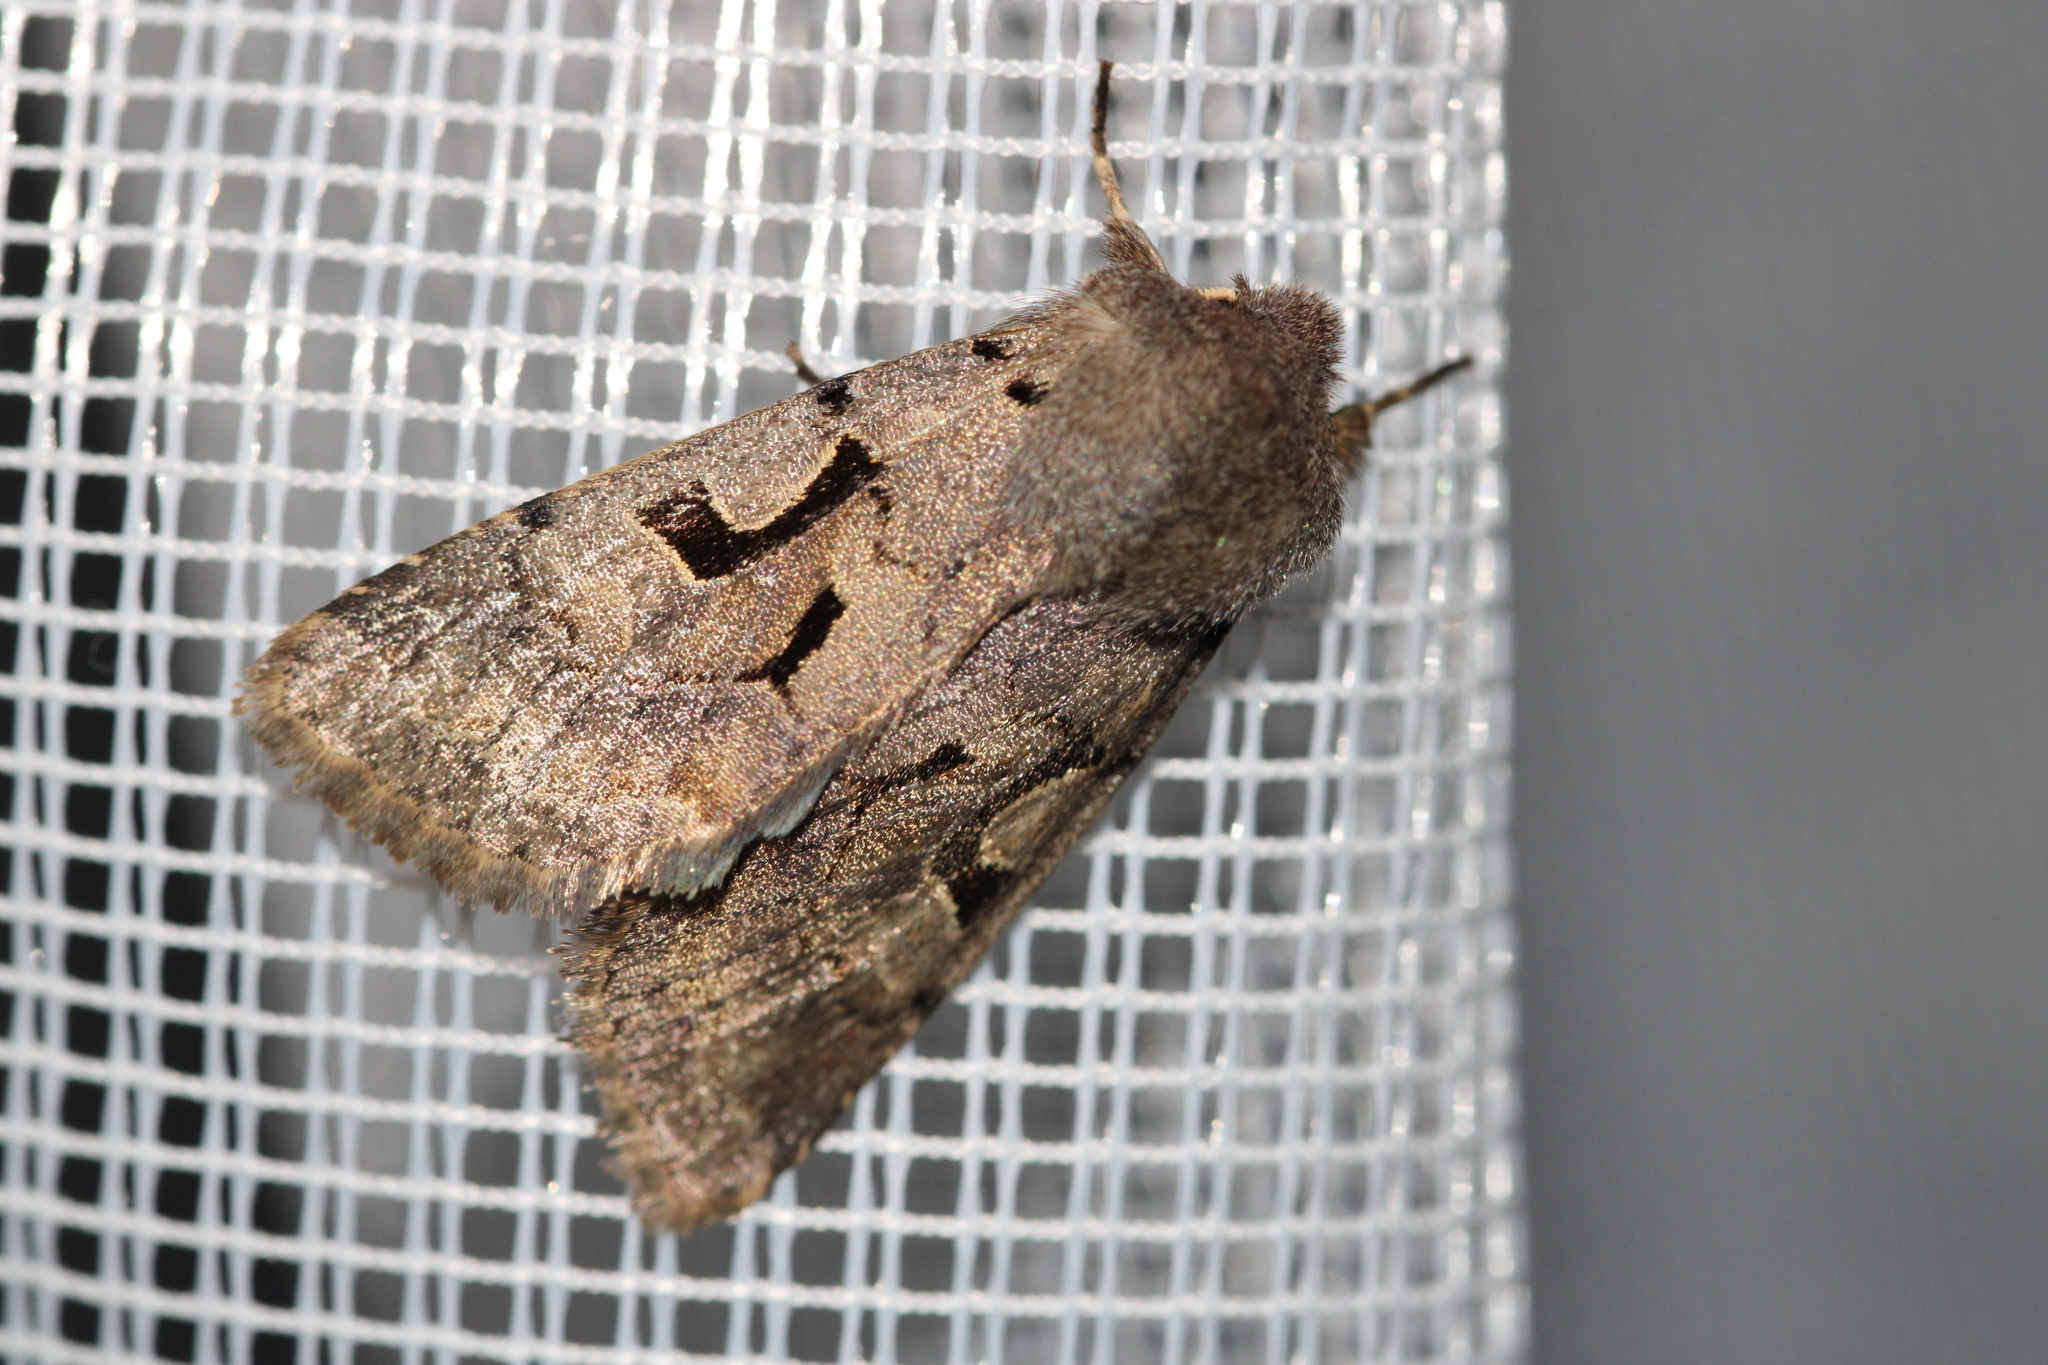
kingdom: Animalia
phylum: Arthropoda
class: Insecta
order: Lepidoptera
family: Noctuidae
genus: Orthosia
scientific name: Orthosia gothica
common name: Hebrew character
